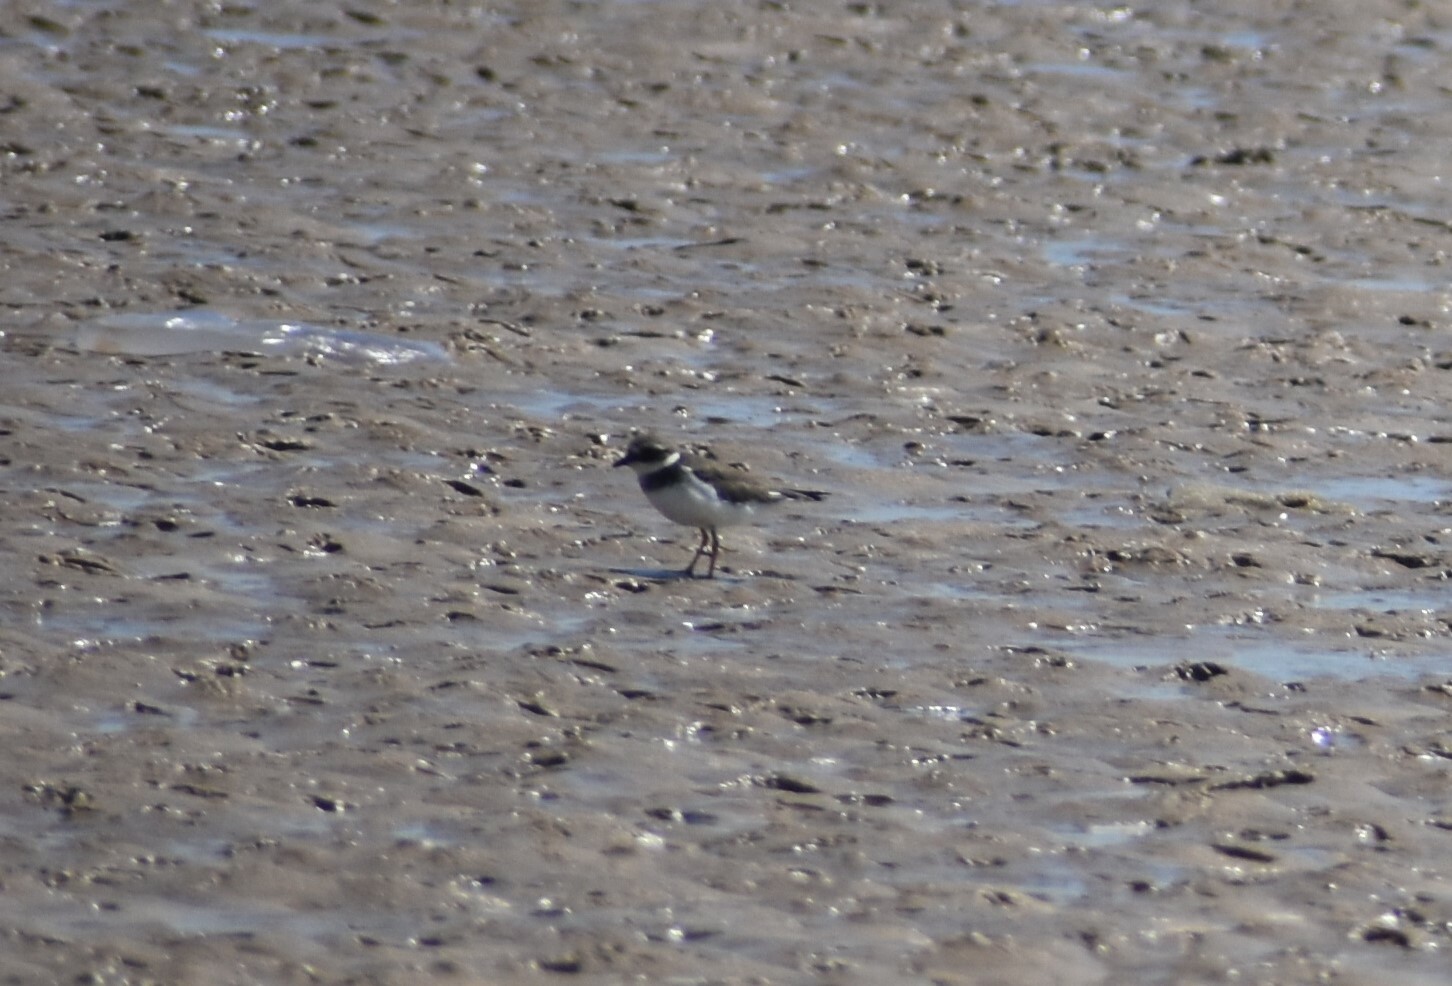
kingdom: Animalia
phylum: Chordata
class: Aves
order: Charadriiformes
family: Charadriidae
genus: Charadrius
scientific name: Charadrius hiaticula
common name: Common ringed plover
